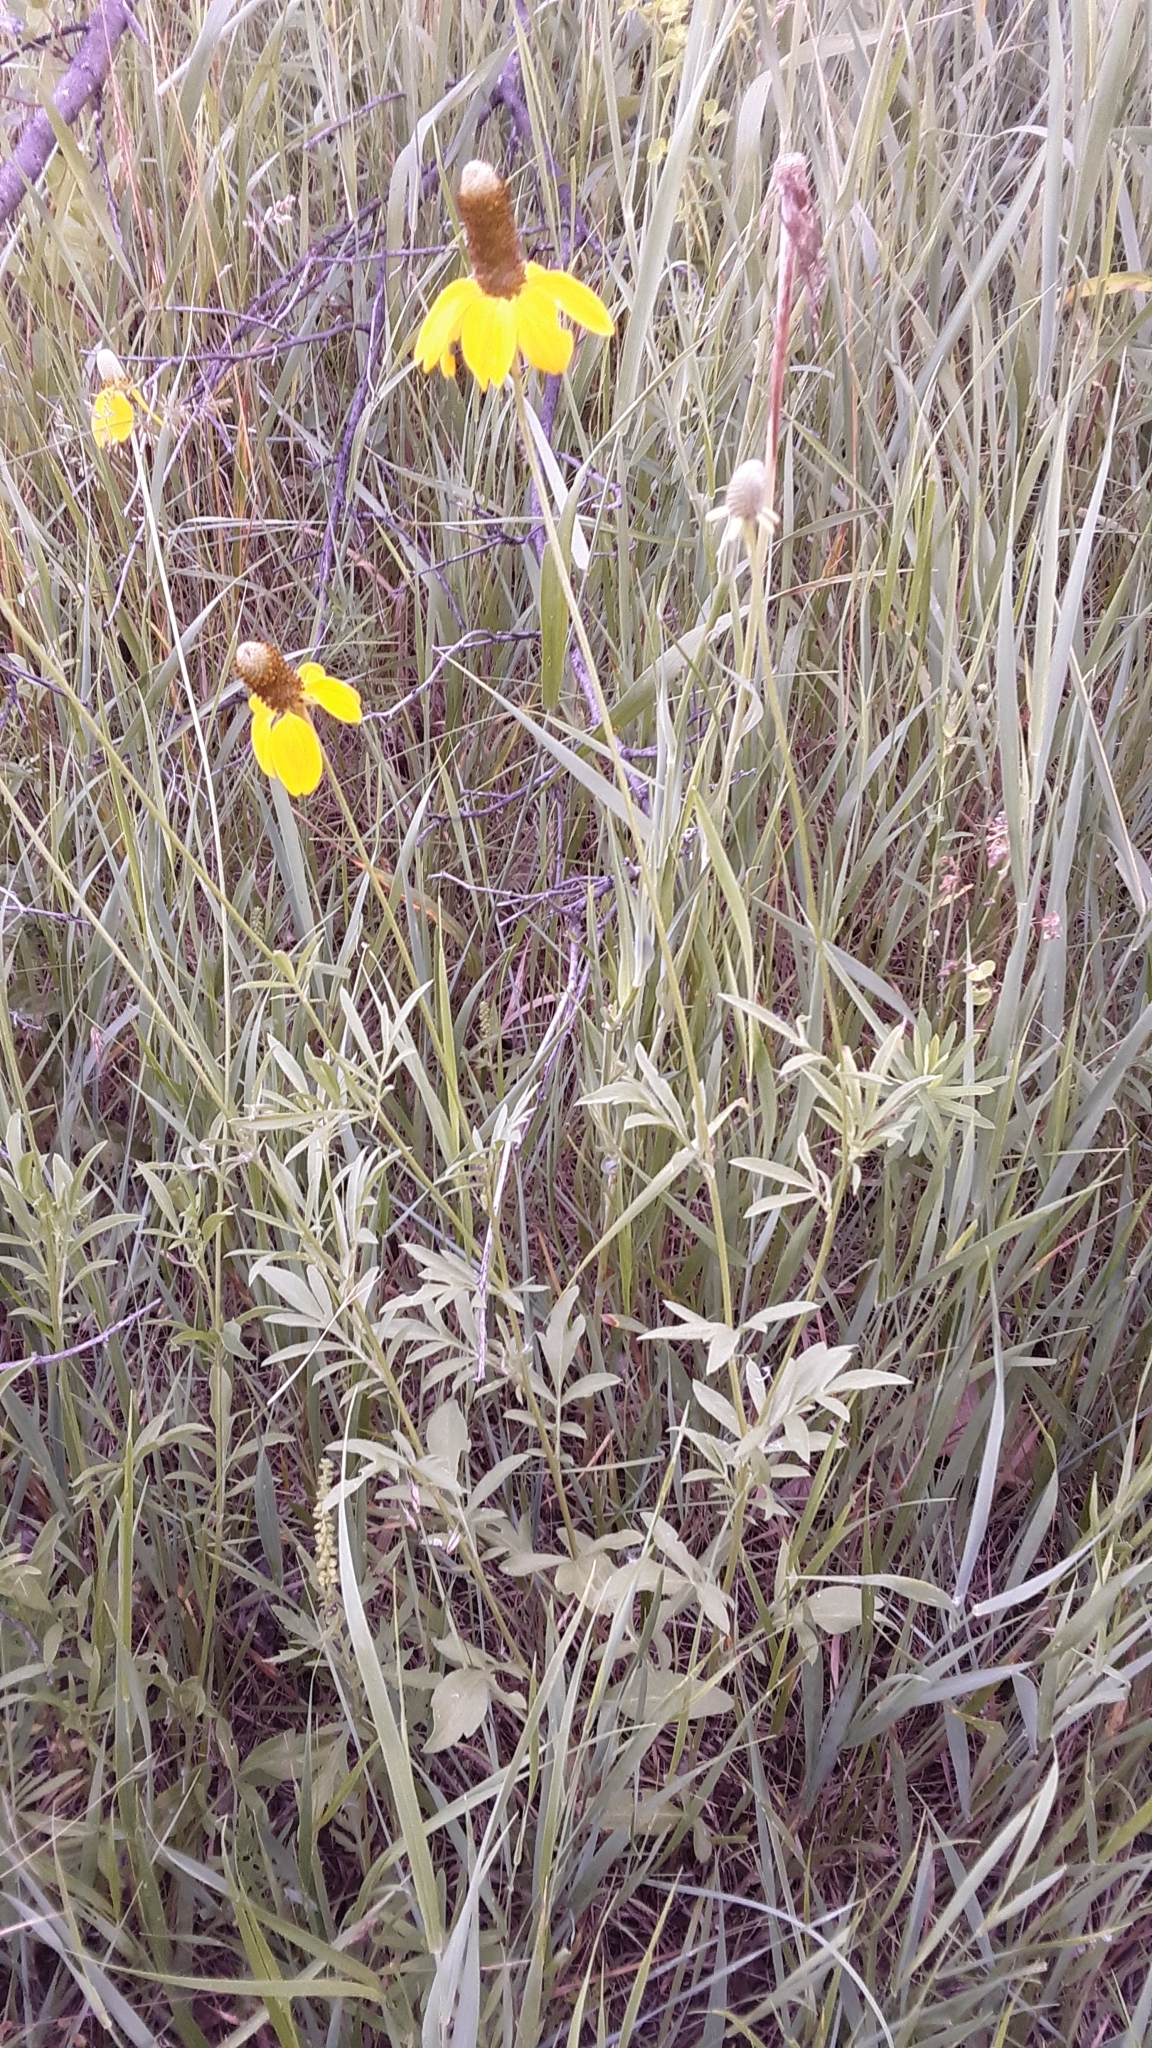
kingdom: Plantae
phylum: Tracheophyta
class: Magnoliopsida
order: Asterales
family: Asteraceae
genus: Ratibida
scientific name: Ratibida columnifera
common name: Prairie coneflower
